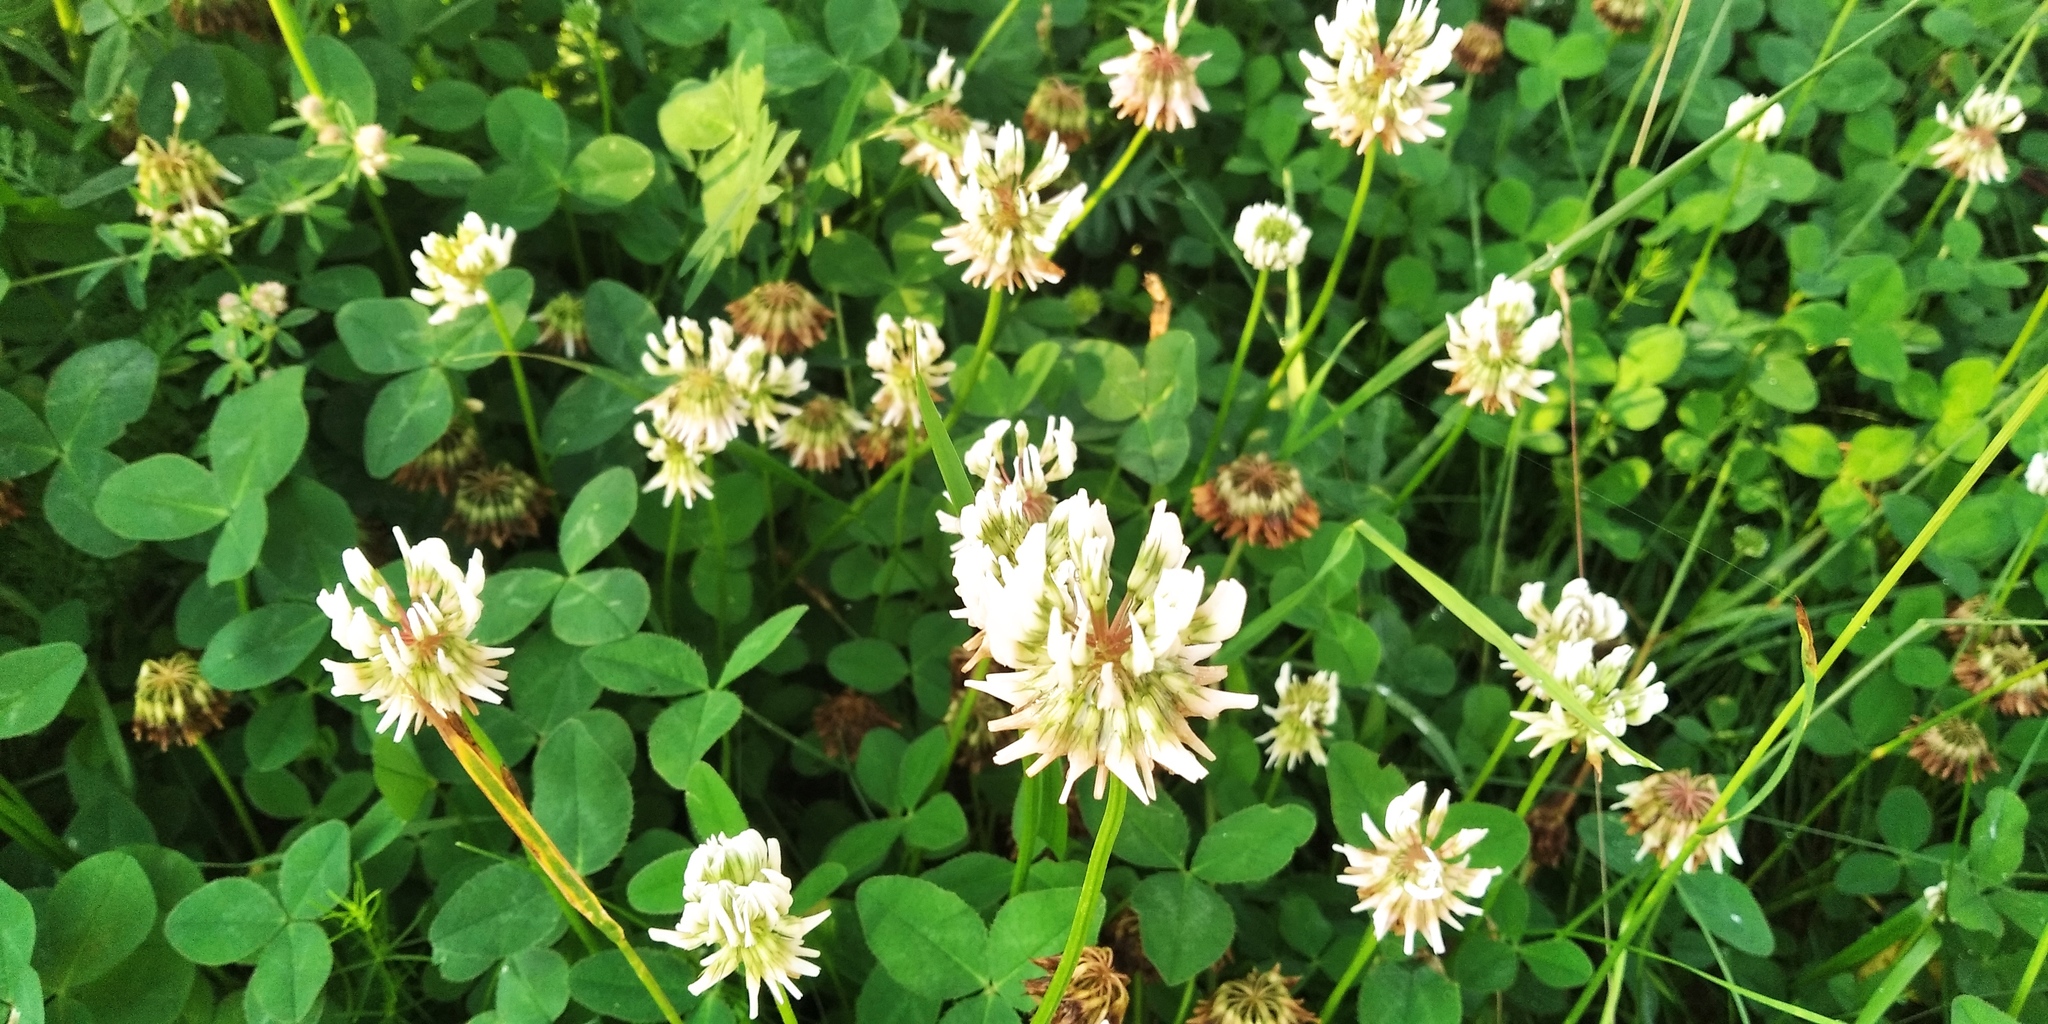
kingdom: Plantae
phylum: Tracheophyta
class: Magnoliopsida
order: Fabales
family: Fabaceae
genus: Trifolium
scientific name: Trifolium repens
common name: White clover
